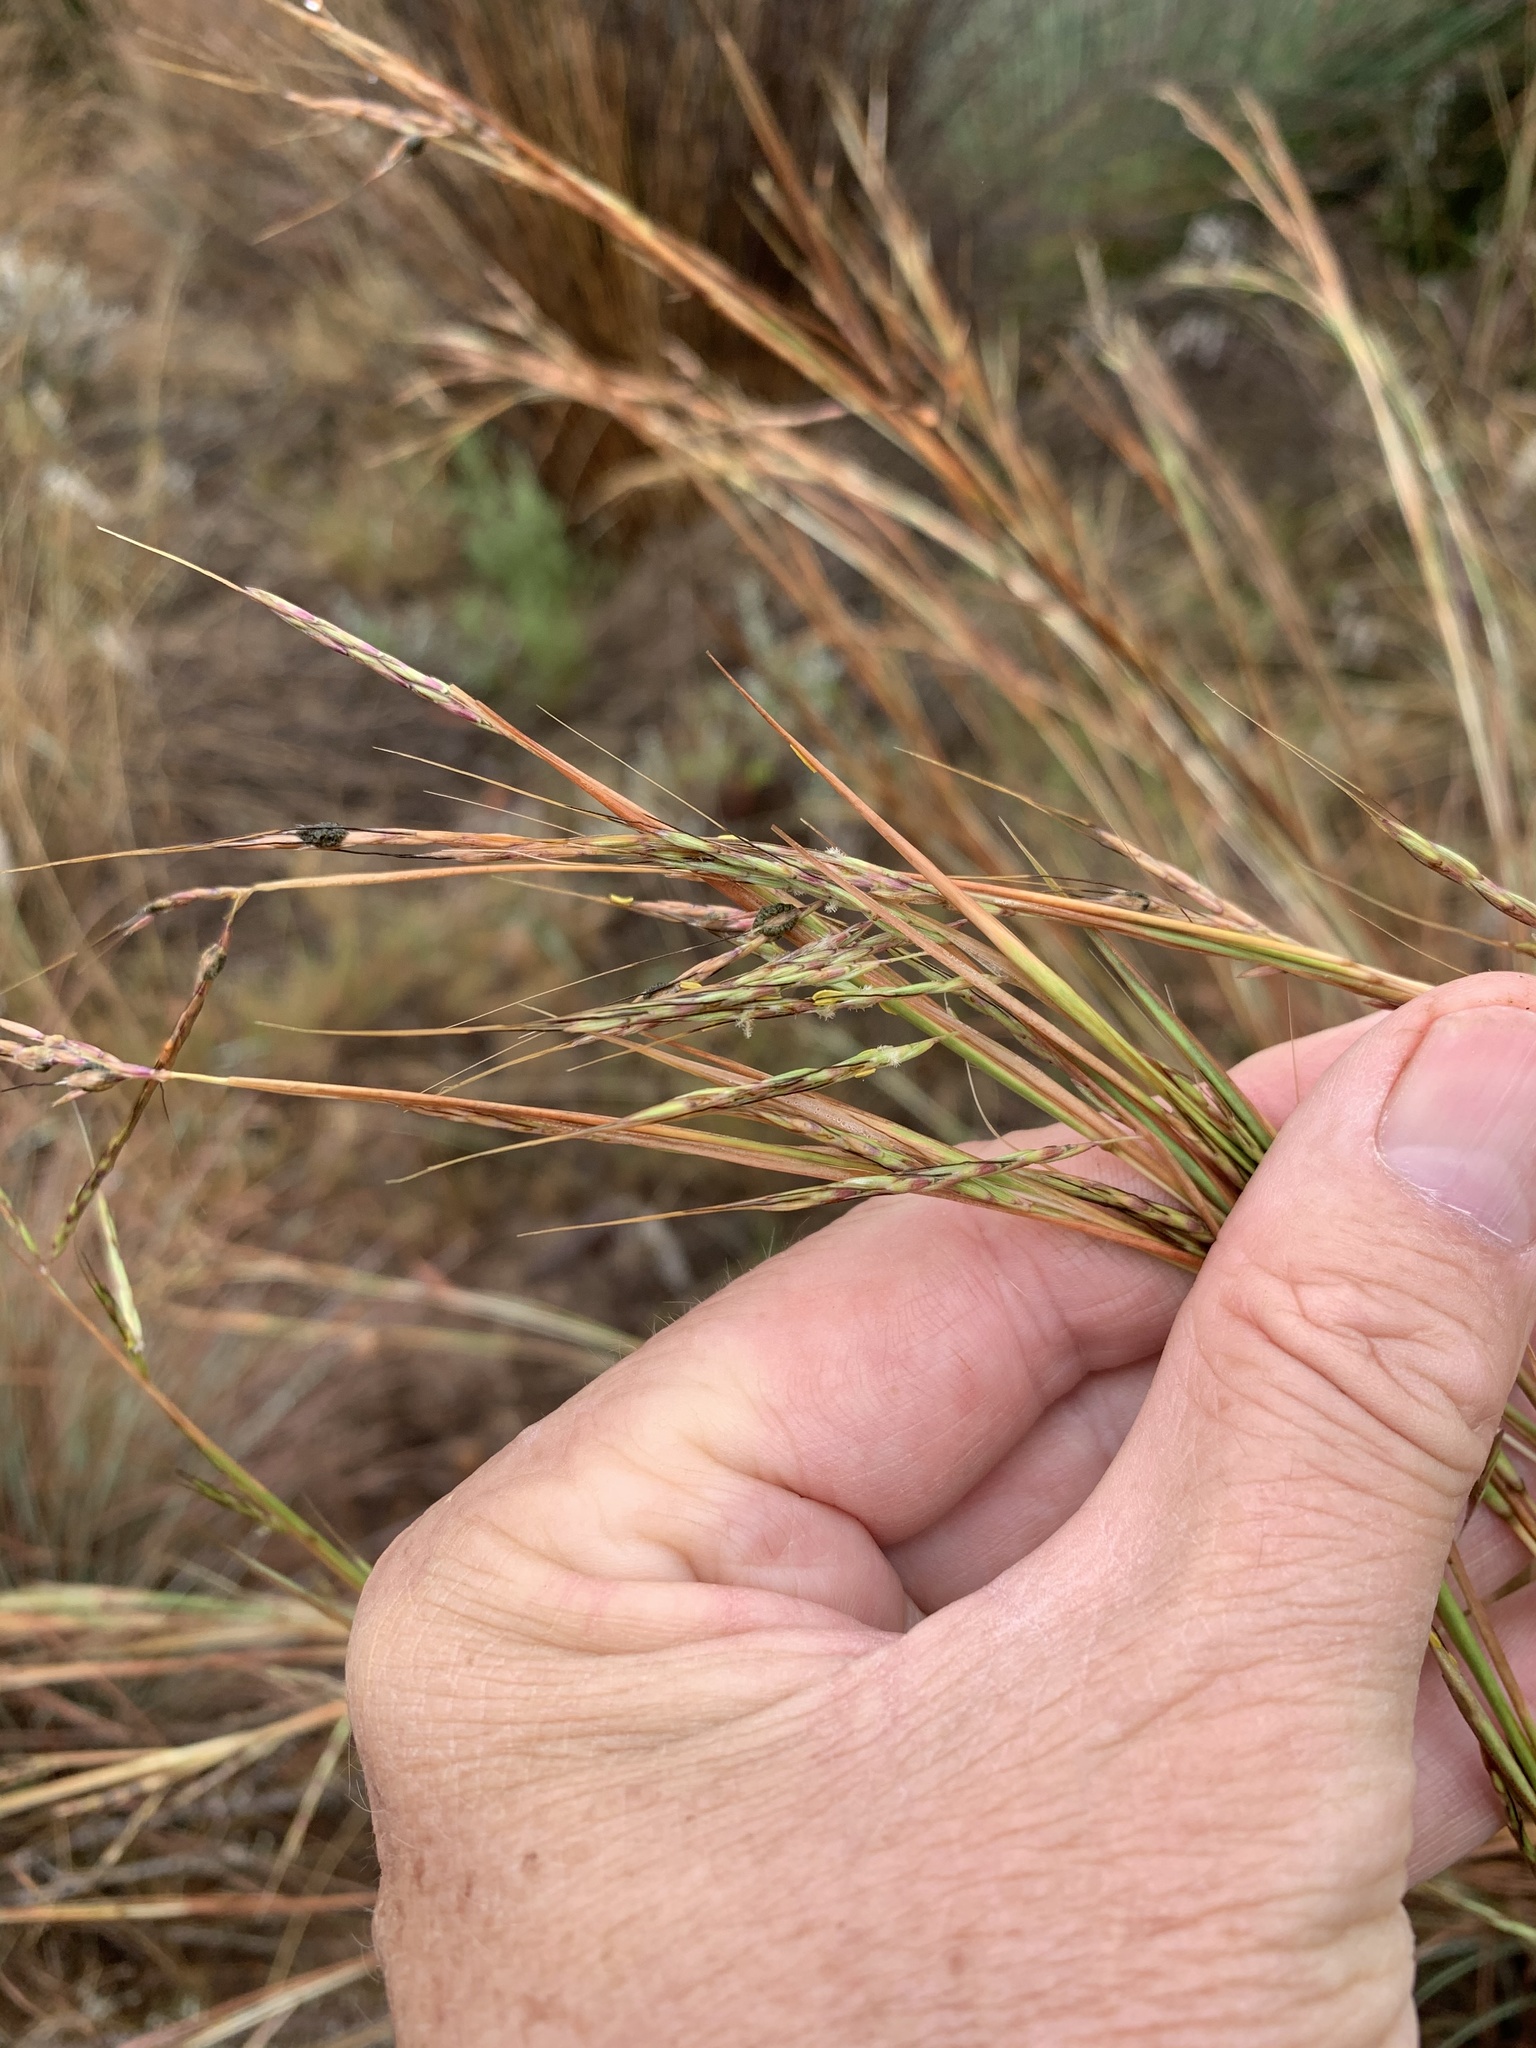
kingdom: Plantae
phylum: Tracheophyta
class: Liliopsida
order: Poales
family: Poaceae
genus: Hyparrhenia
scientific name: Hyparrhenia hirta
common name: Thatching grass
